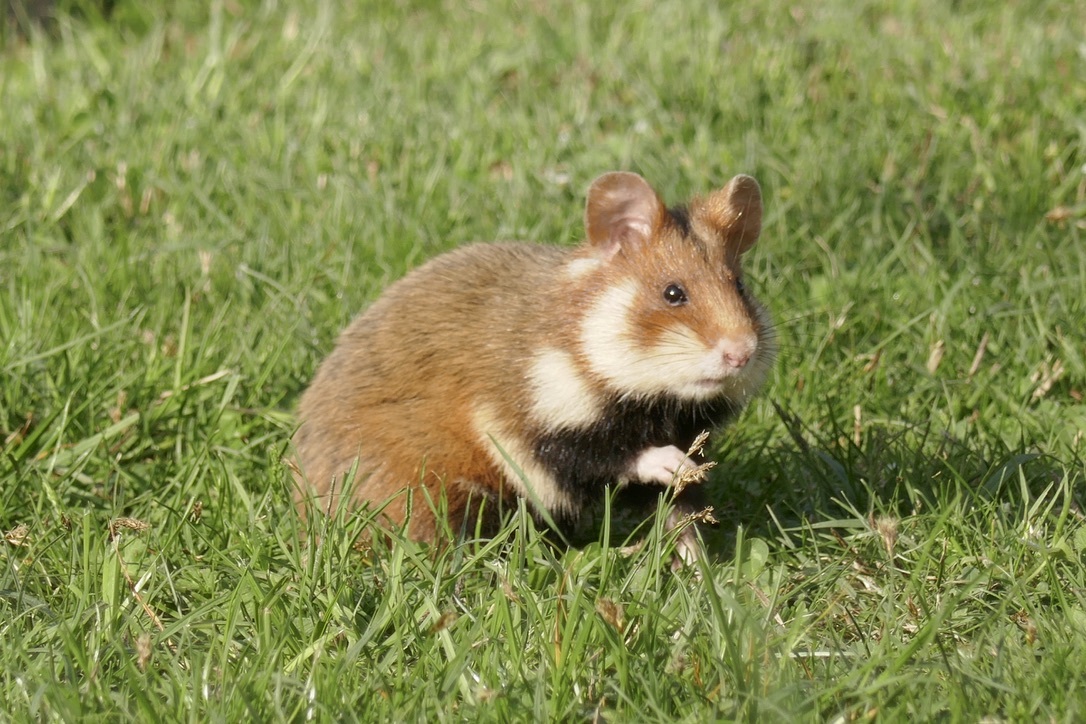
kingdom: Animalia
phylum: Chordata
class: Mammalia
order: Rodentia
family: Cricetidae
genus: Cricetus
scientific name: Cricetus cricetus
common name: Common hamster
